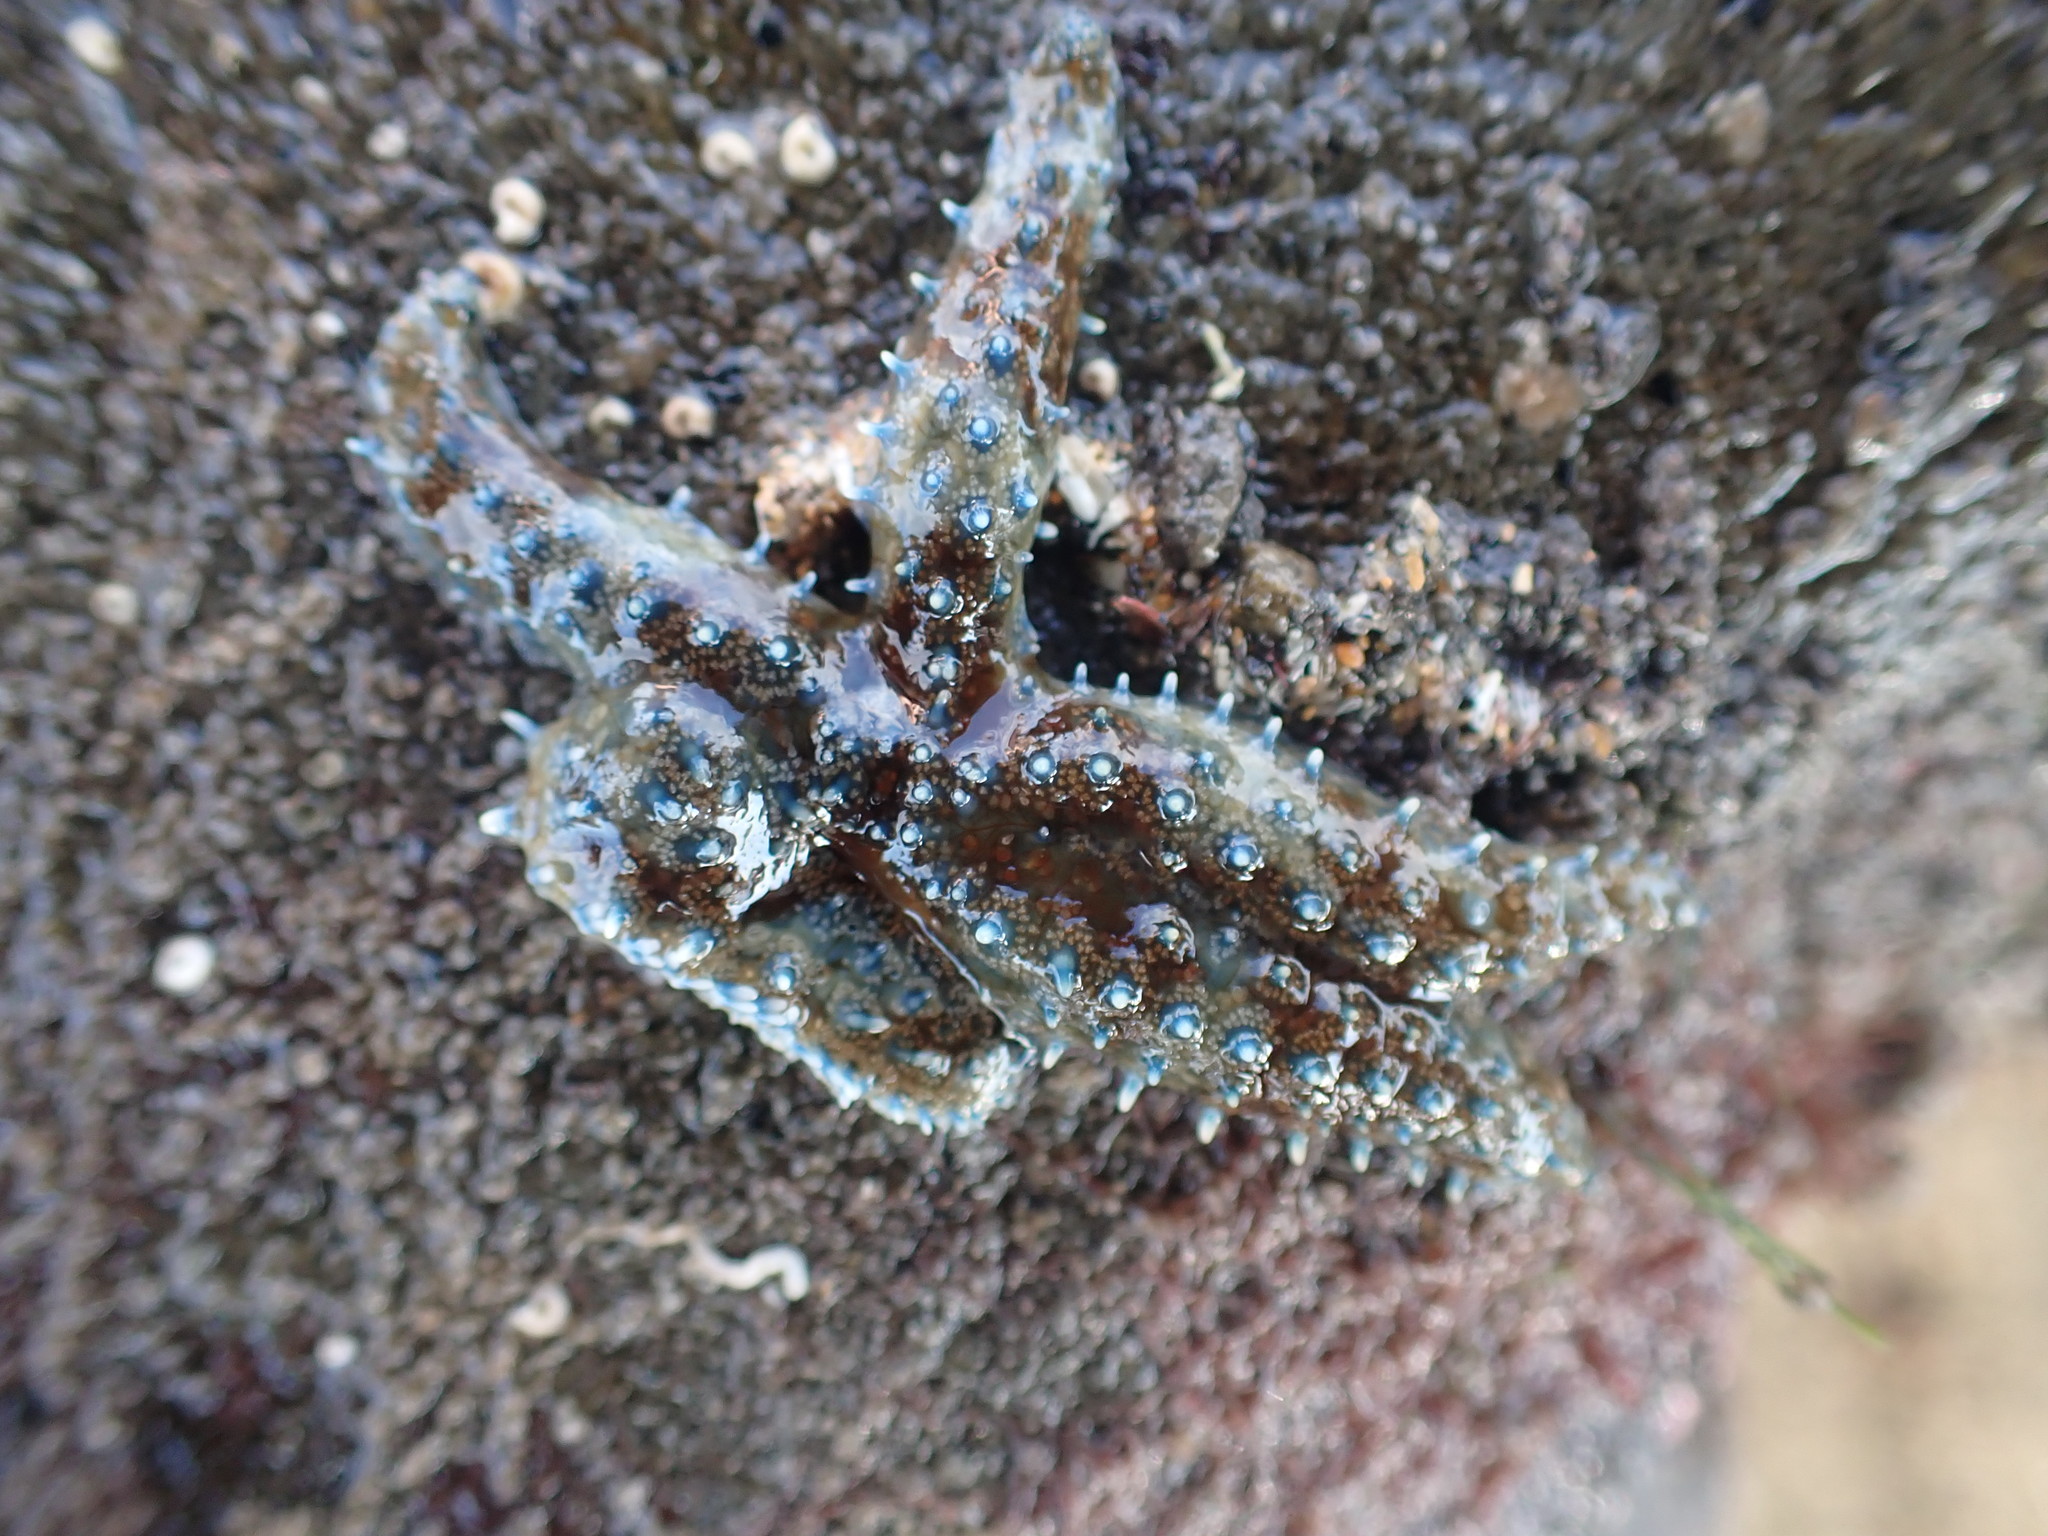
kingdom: Animalia
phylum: Echinodermata
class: Asteroidea
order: Forcipulatida
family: Asteriidae
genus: Coscinasterias
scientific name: Coscinasterias muricata
